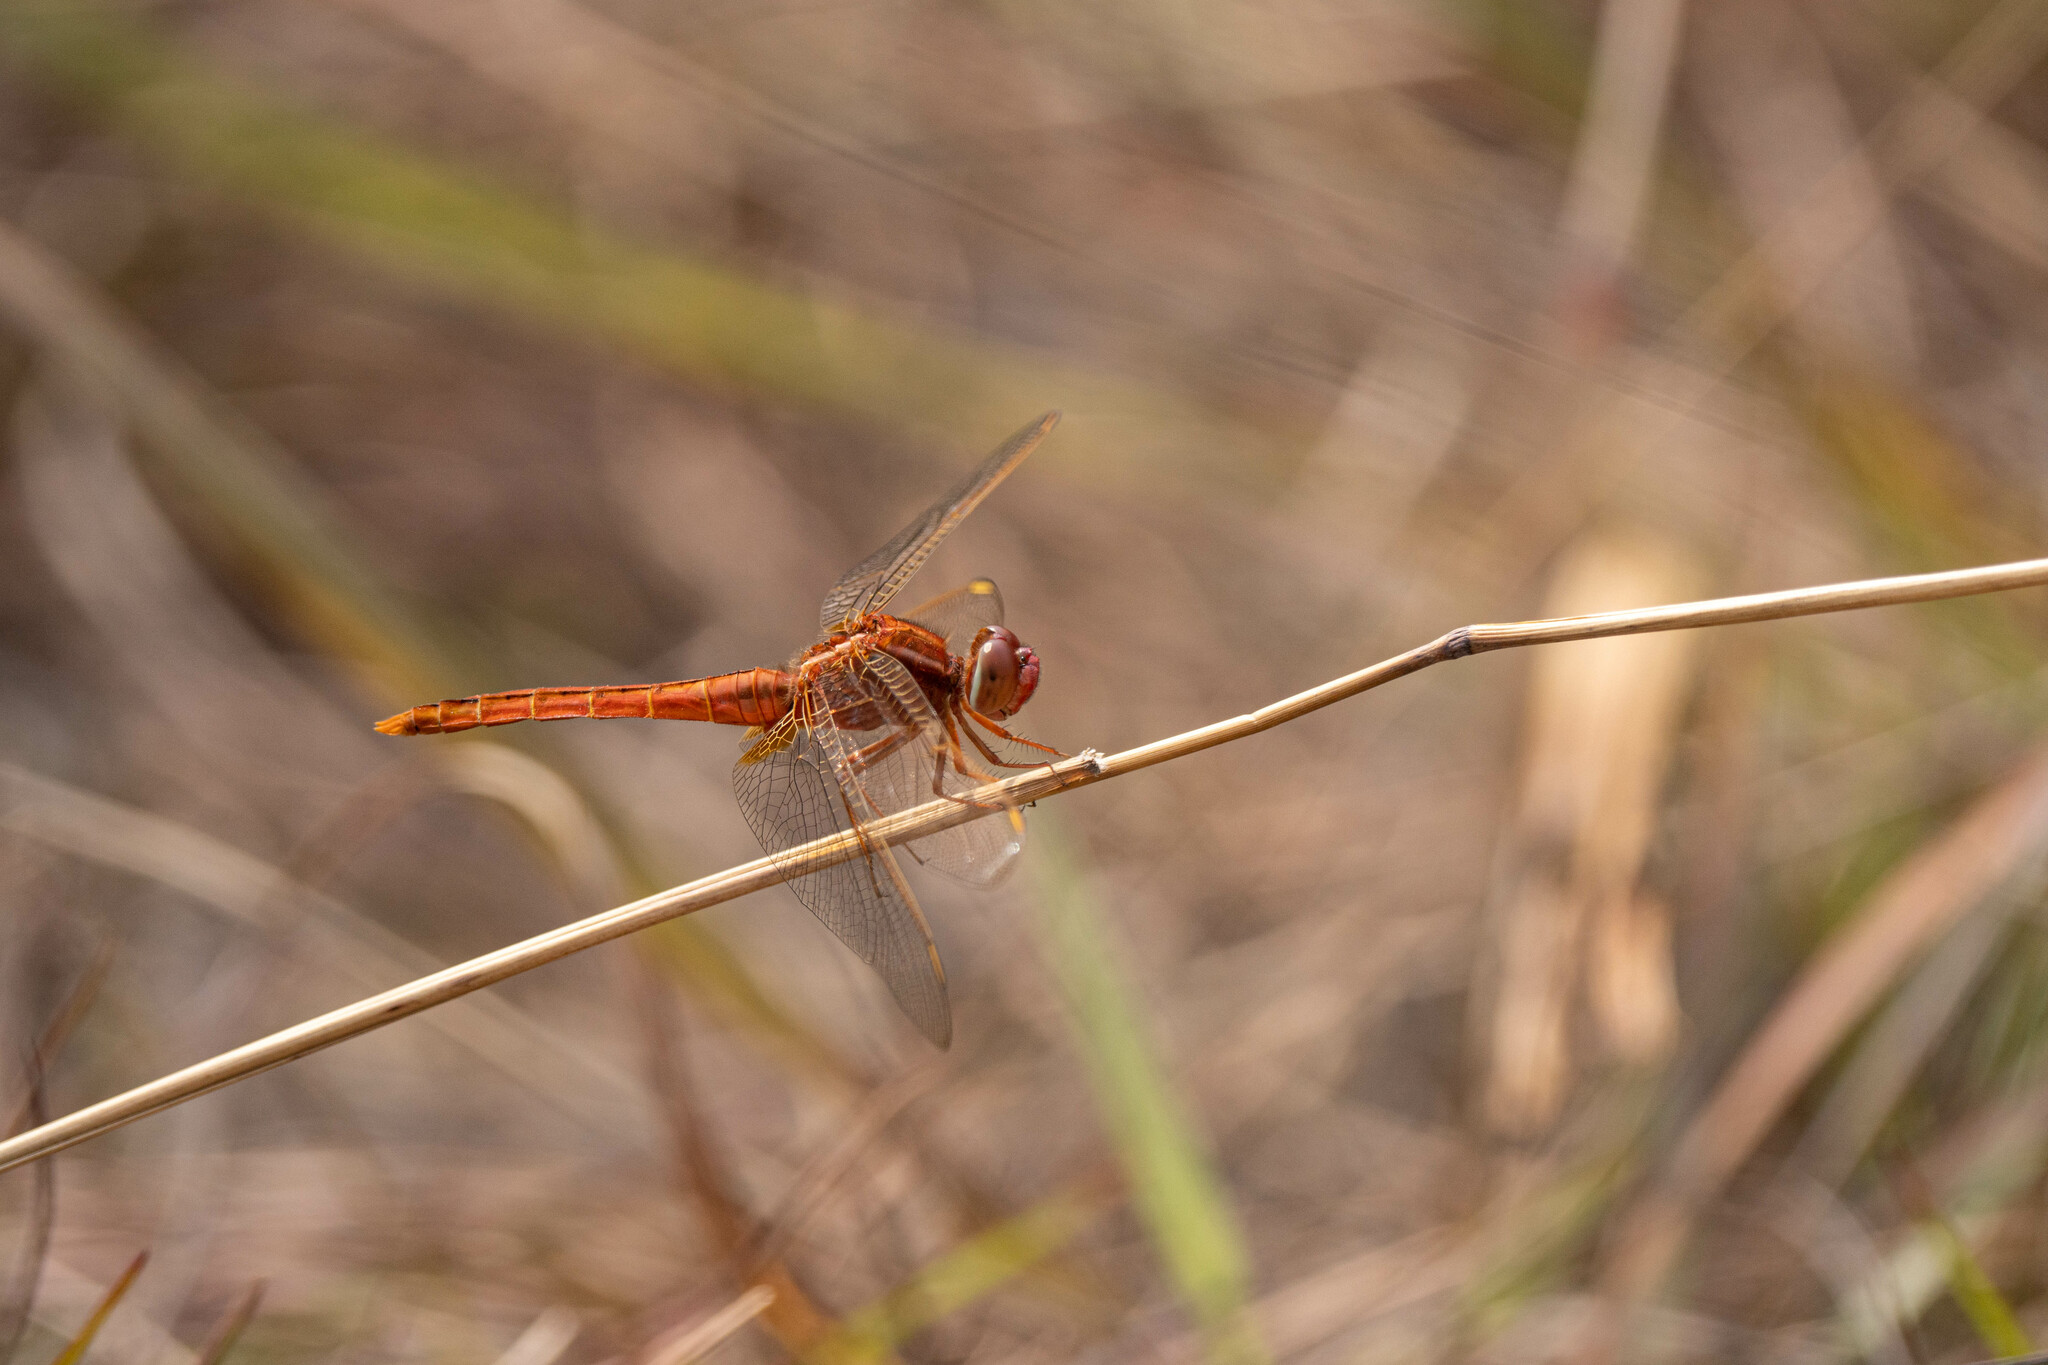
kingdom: Animalia
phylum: Arthropoda
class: Insecta
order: Odonata
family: Libellulidae
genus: Crocothemis
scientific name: Crocothemis servilia
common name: Scarlet skimmer
